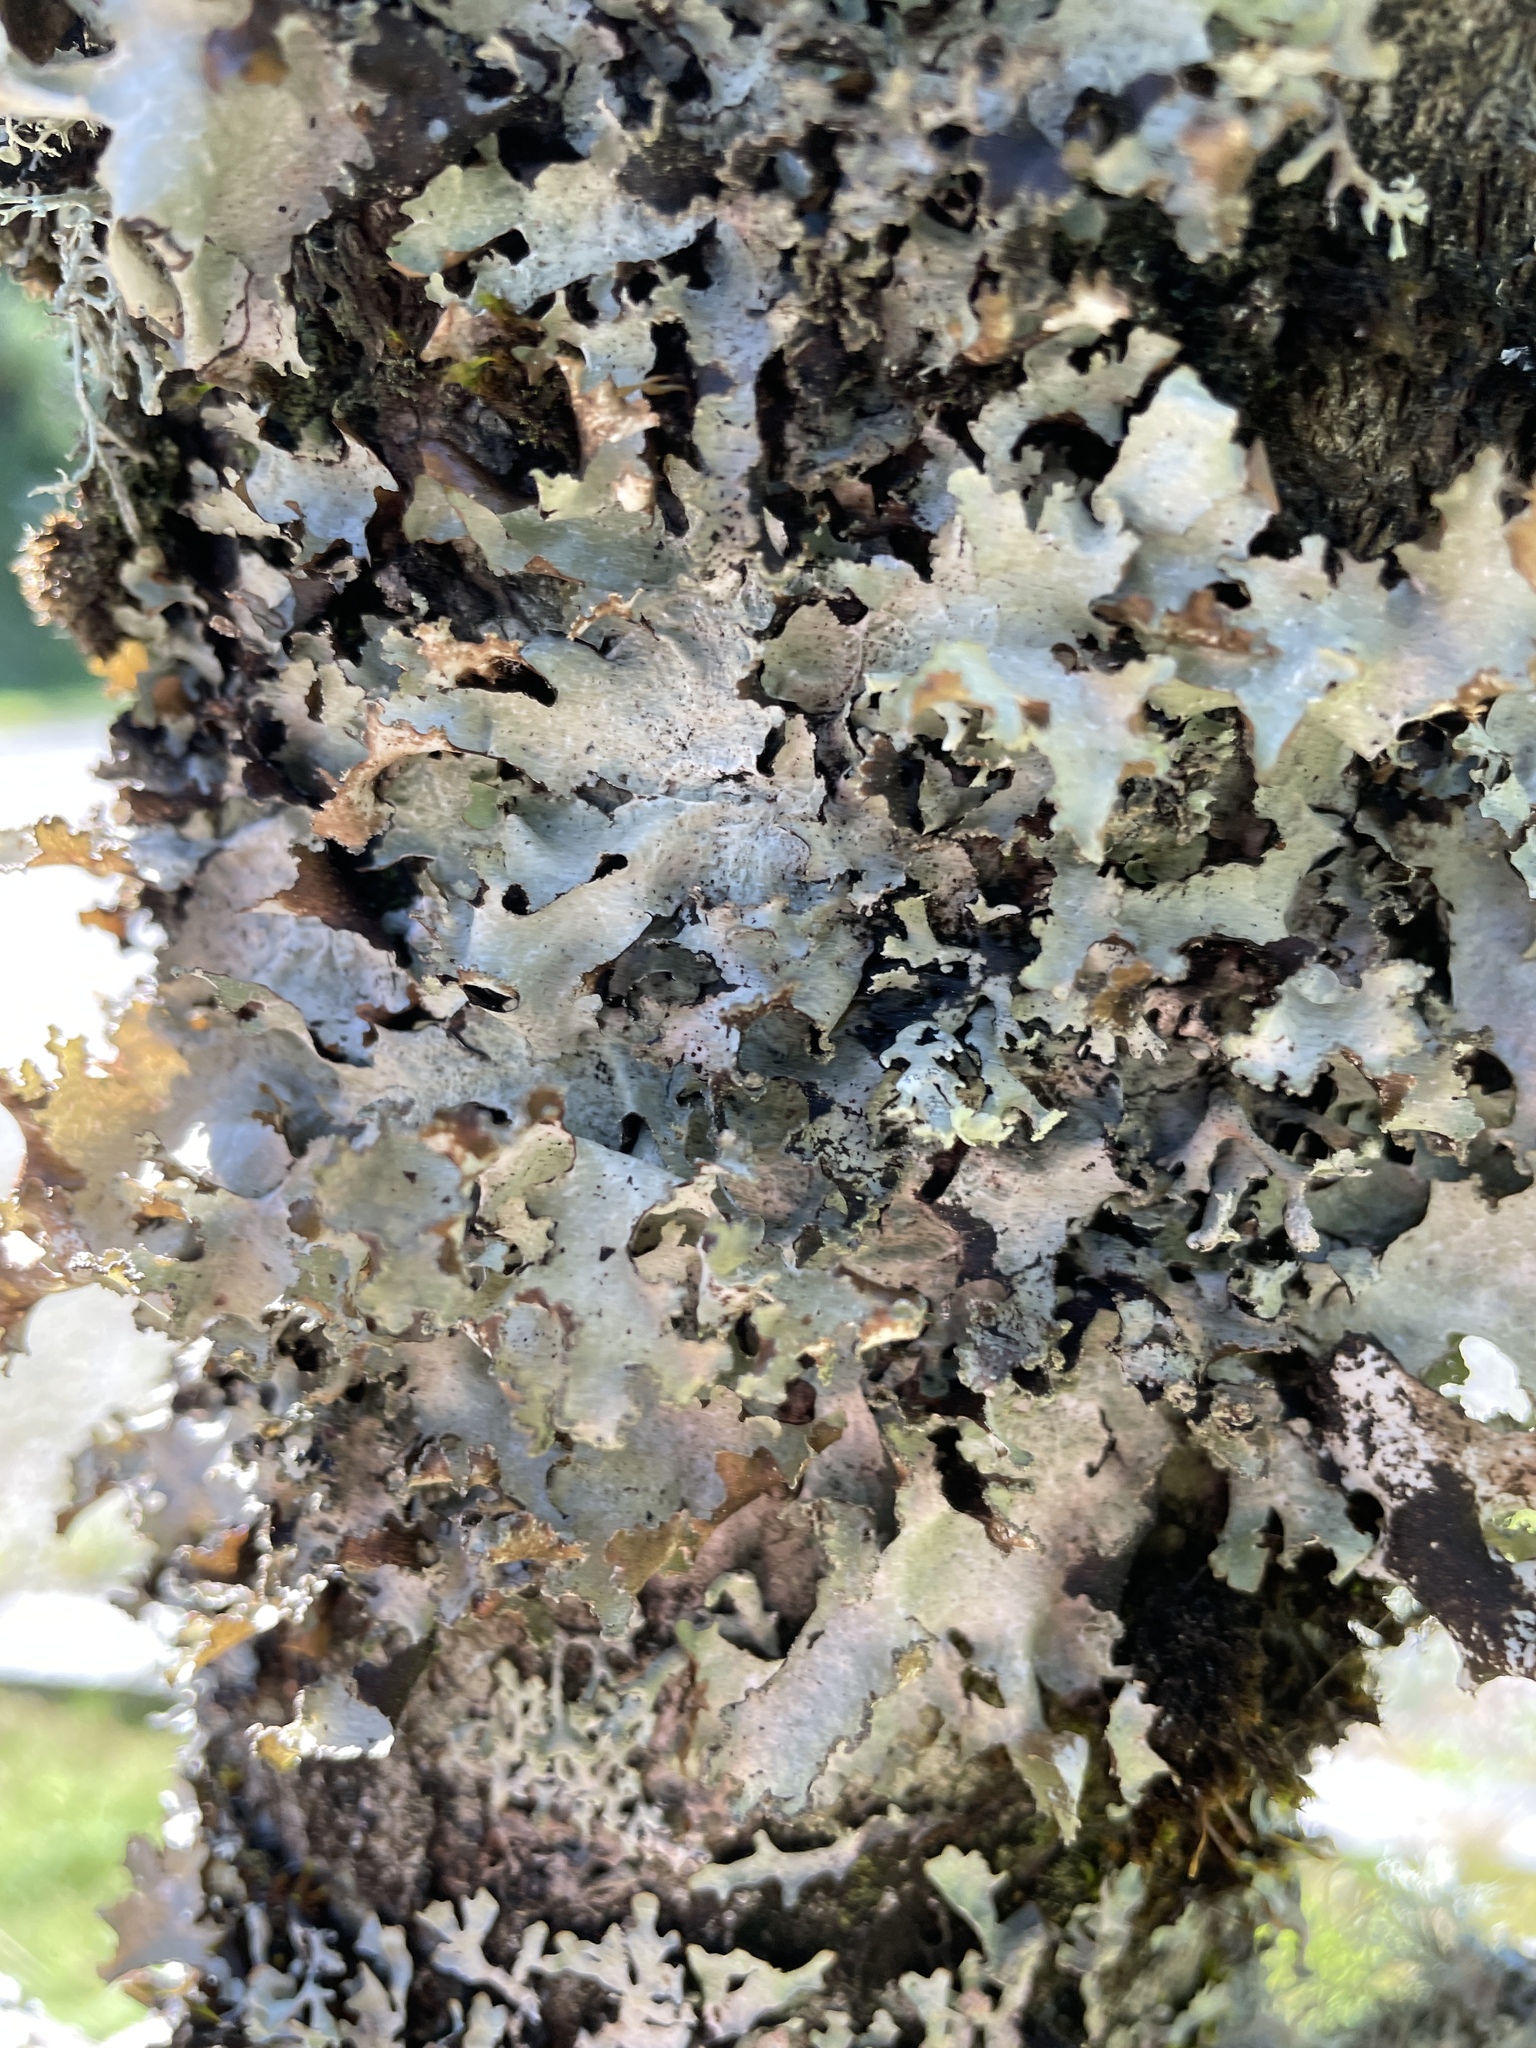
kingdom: Fungi
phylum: Ascomycota
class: Lecanoromycetes
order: Lecanorales
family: Parmeliaceae
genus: Platismatia
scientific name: Platismatia glauca
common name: Varied rag lichen
